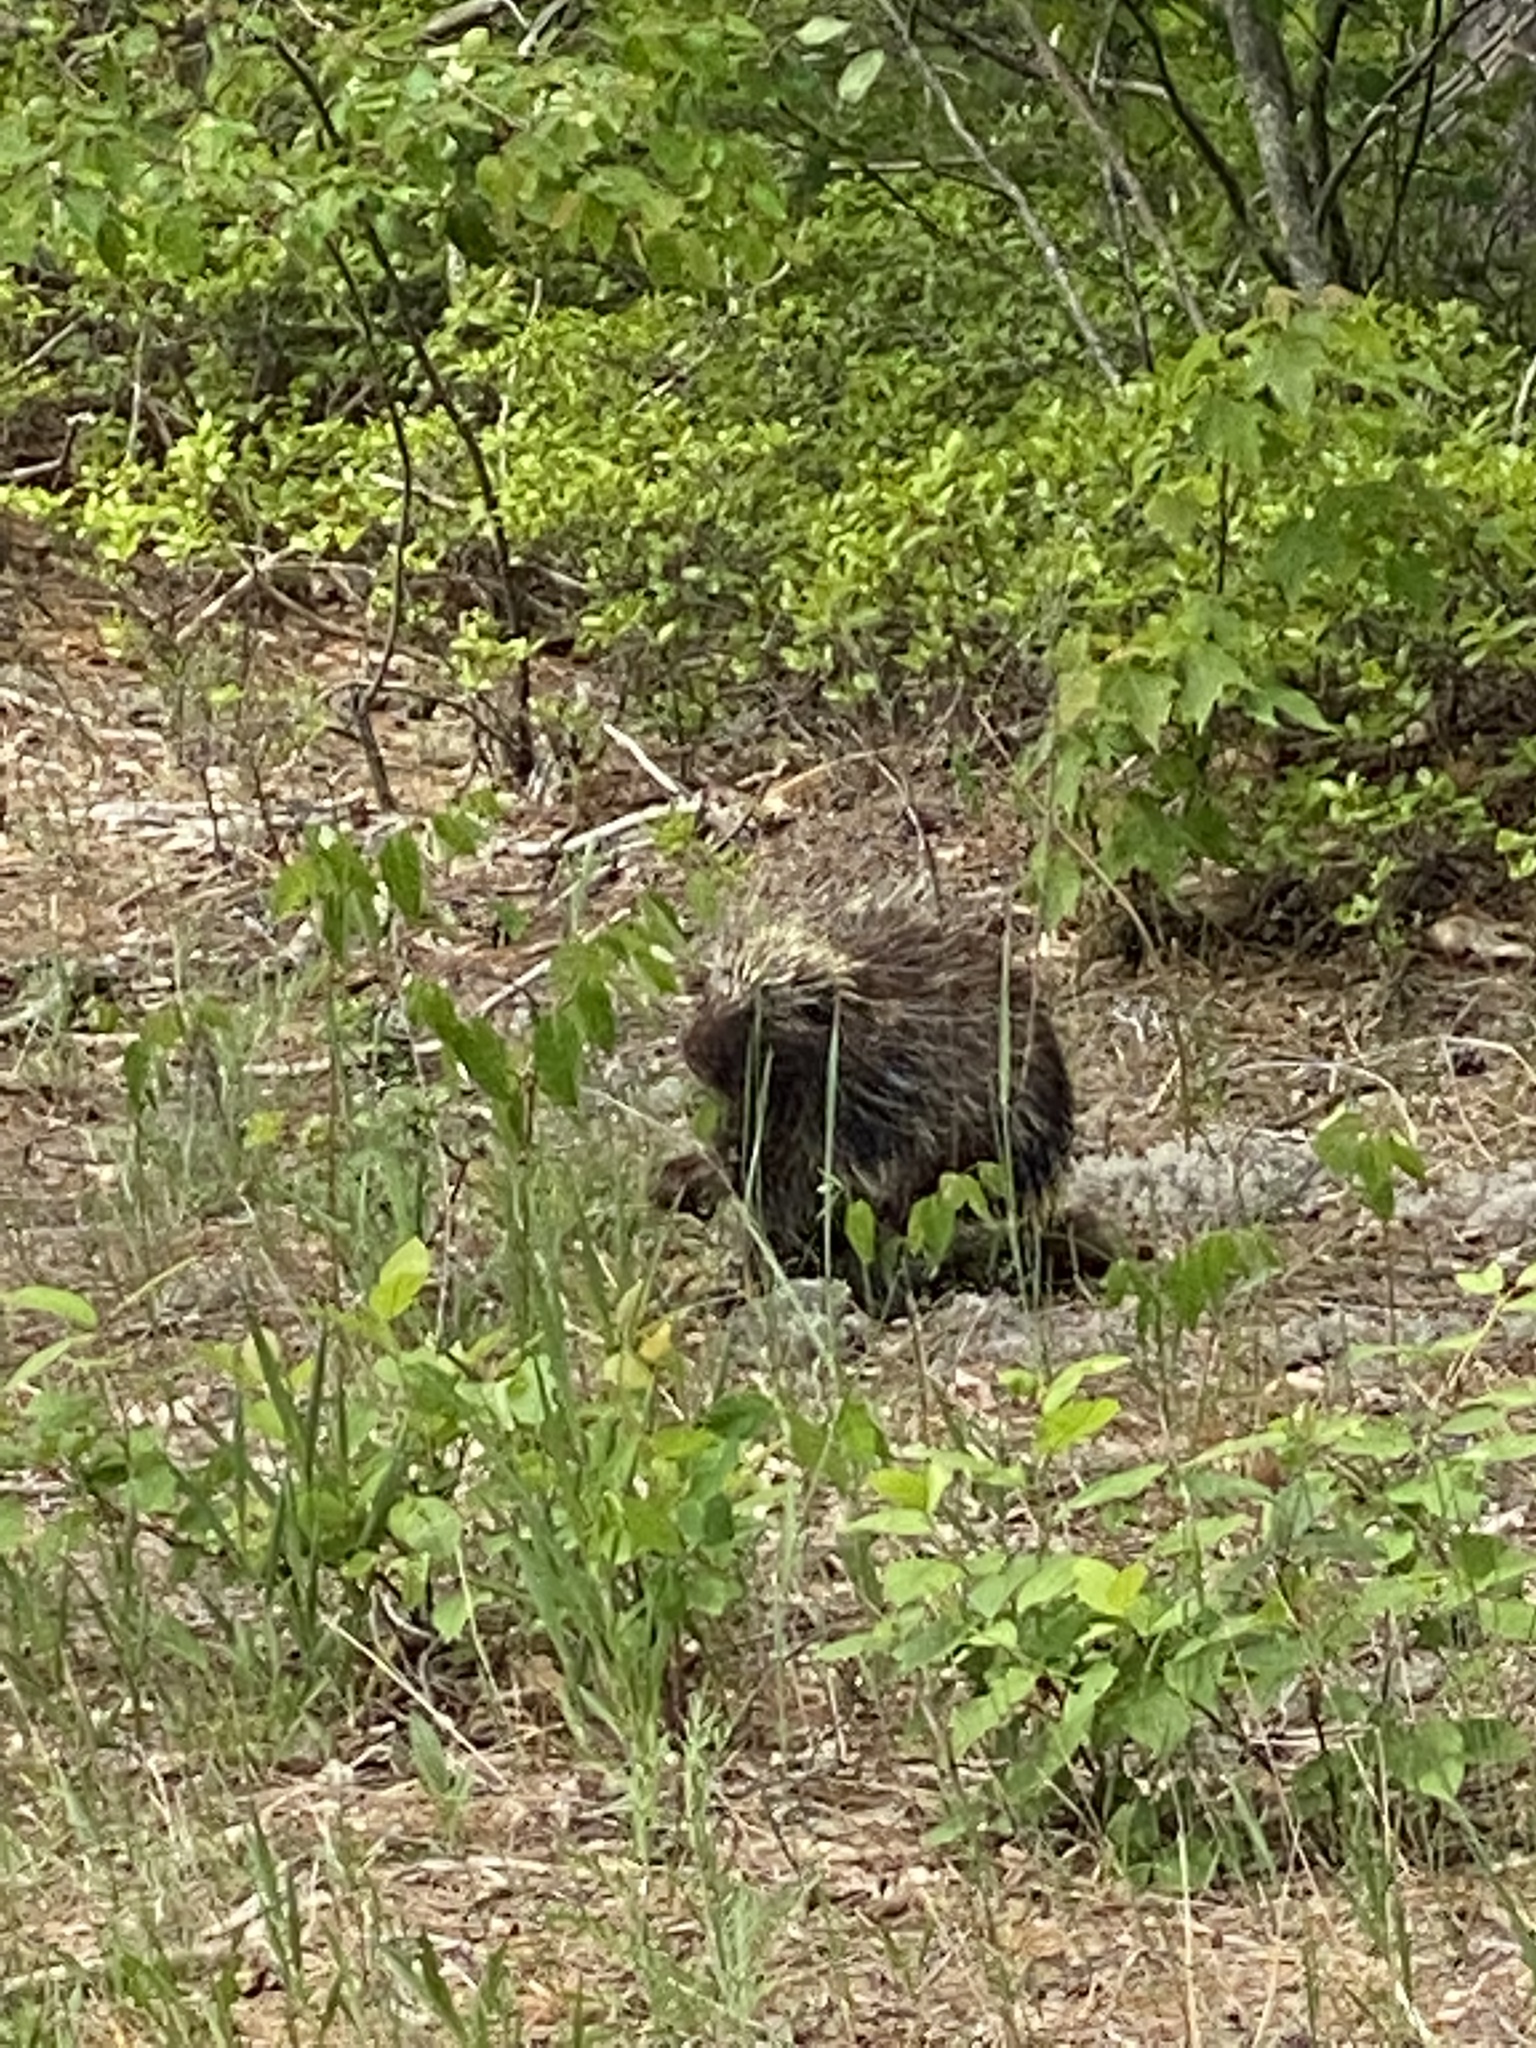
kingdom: Animalia
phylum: Chordata
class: Mammalia
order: Rodentia
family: Erethizontidae
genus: Erethizon
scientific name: Erethizon dorsatus
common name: North american porcupine
